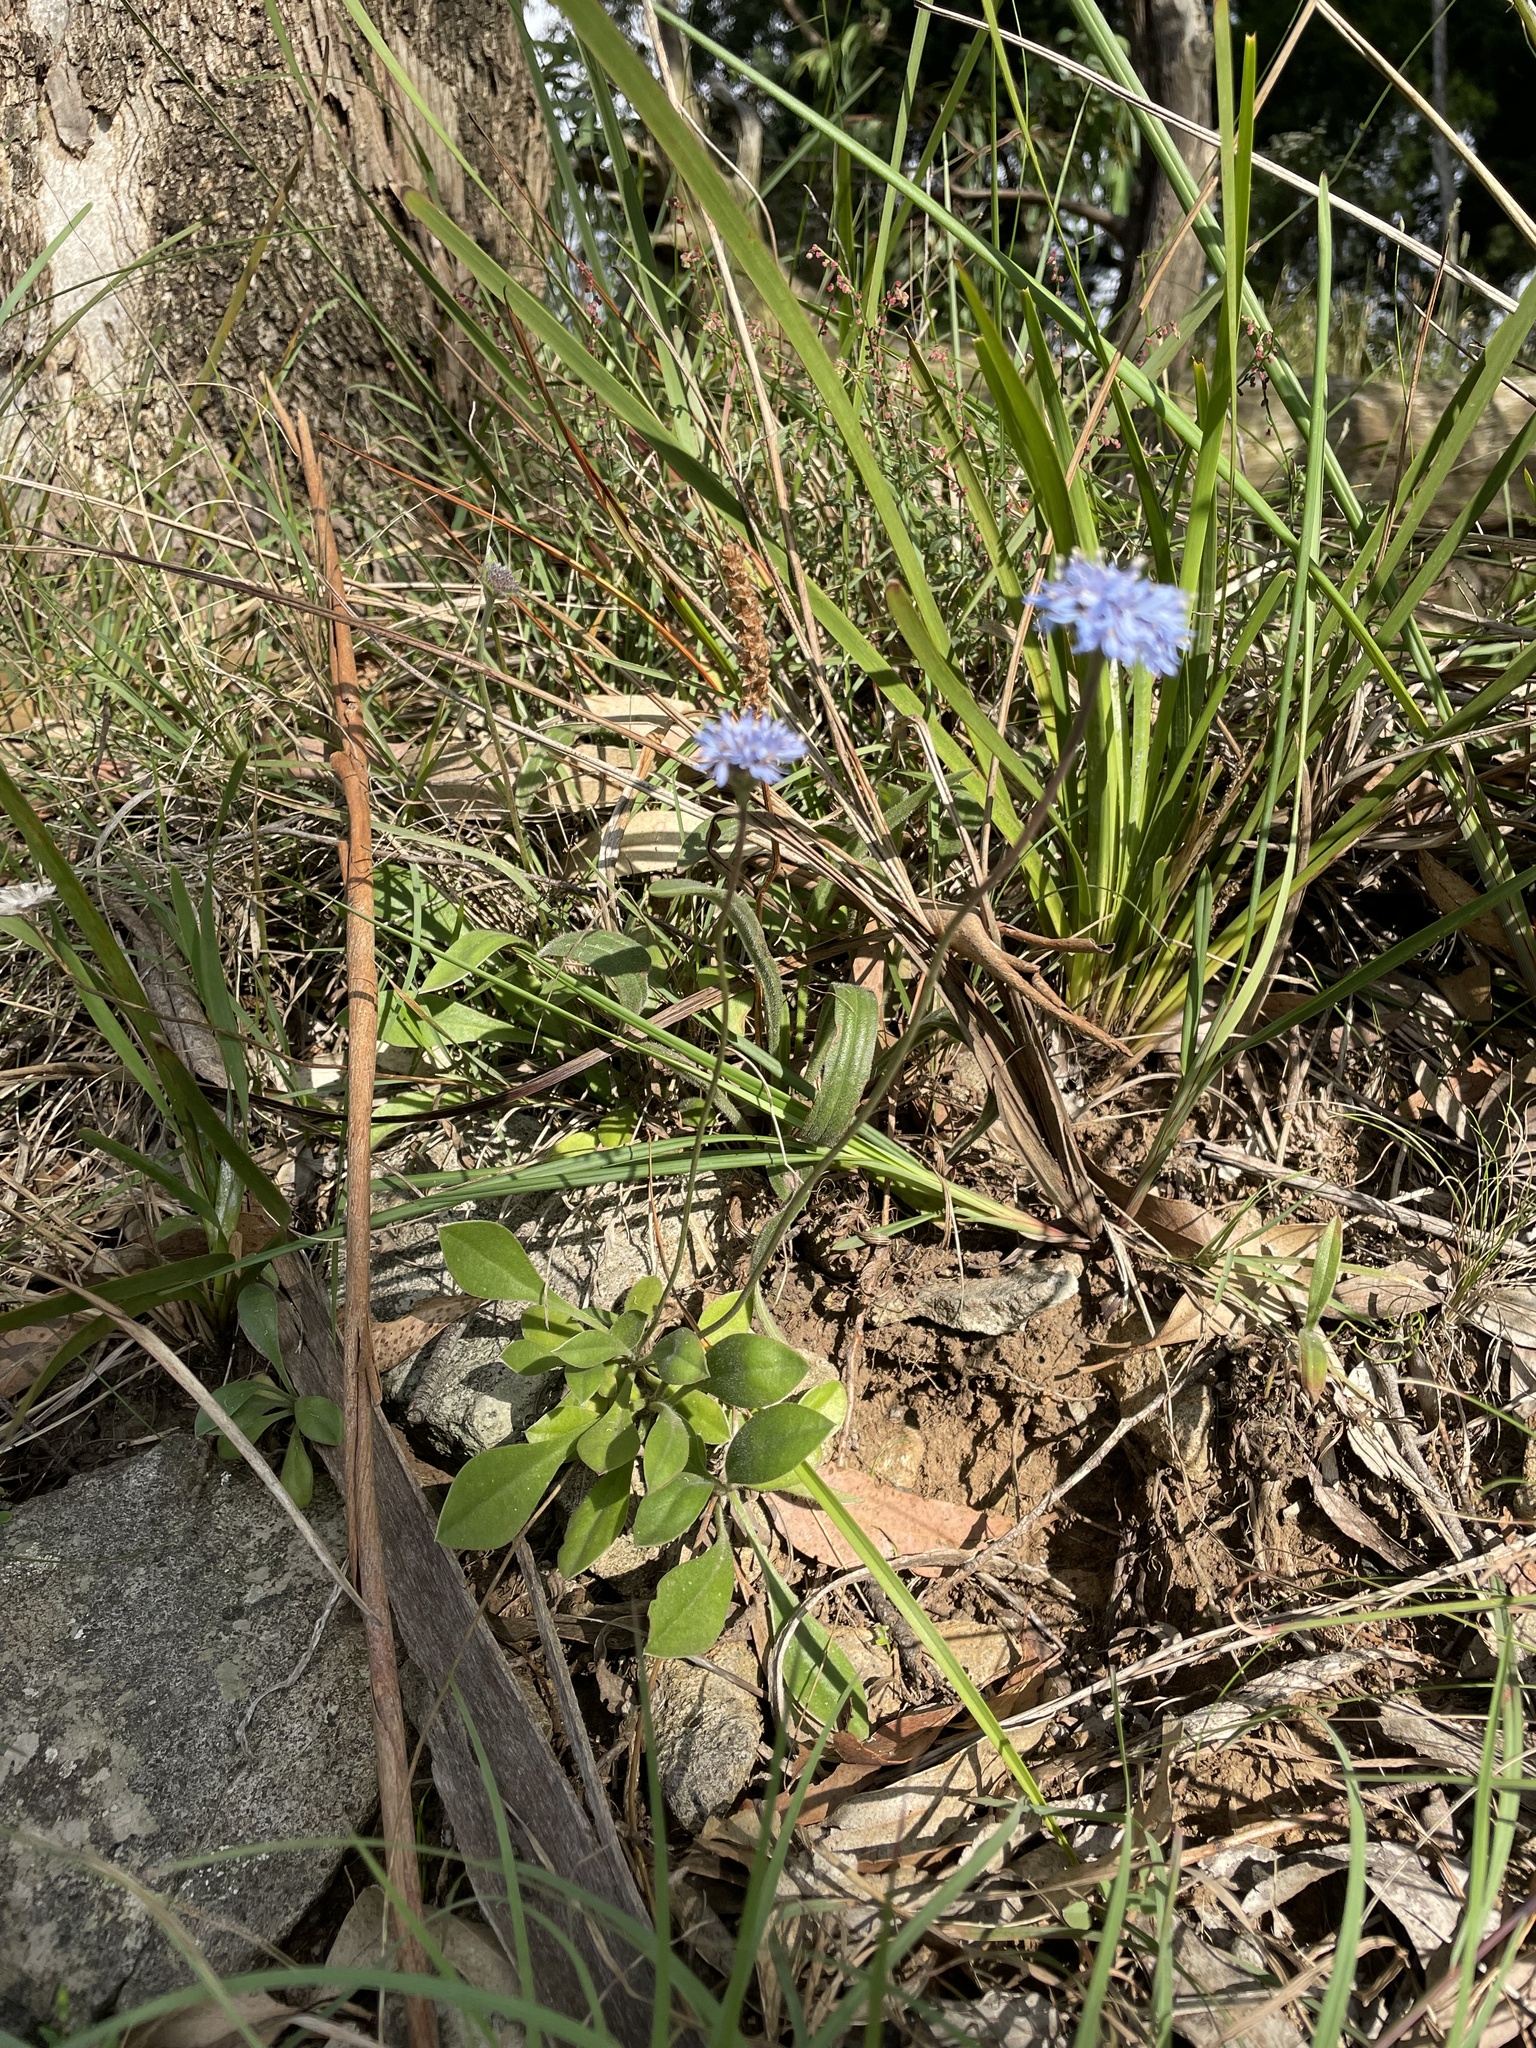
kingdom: Plantae
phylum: Tracheophyta
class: Magnoliopsida
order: Asterales
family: Goodeniaceae
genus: Brunonia
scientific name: Brunonia australis
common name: Blue pincushion
